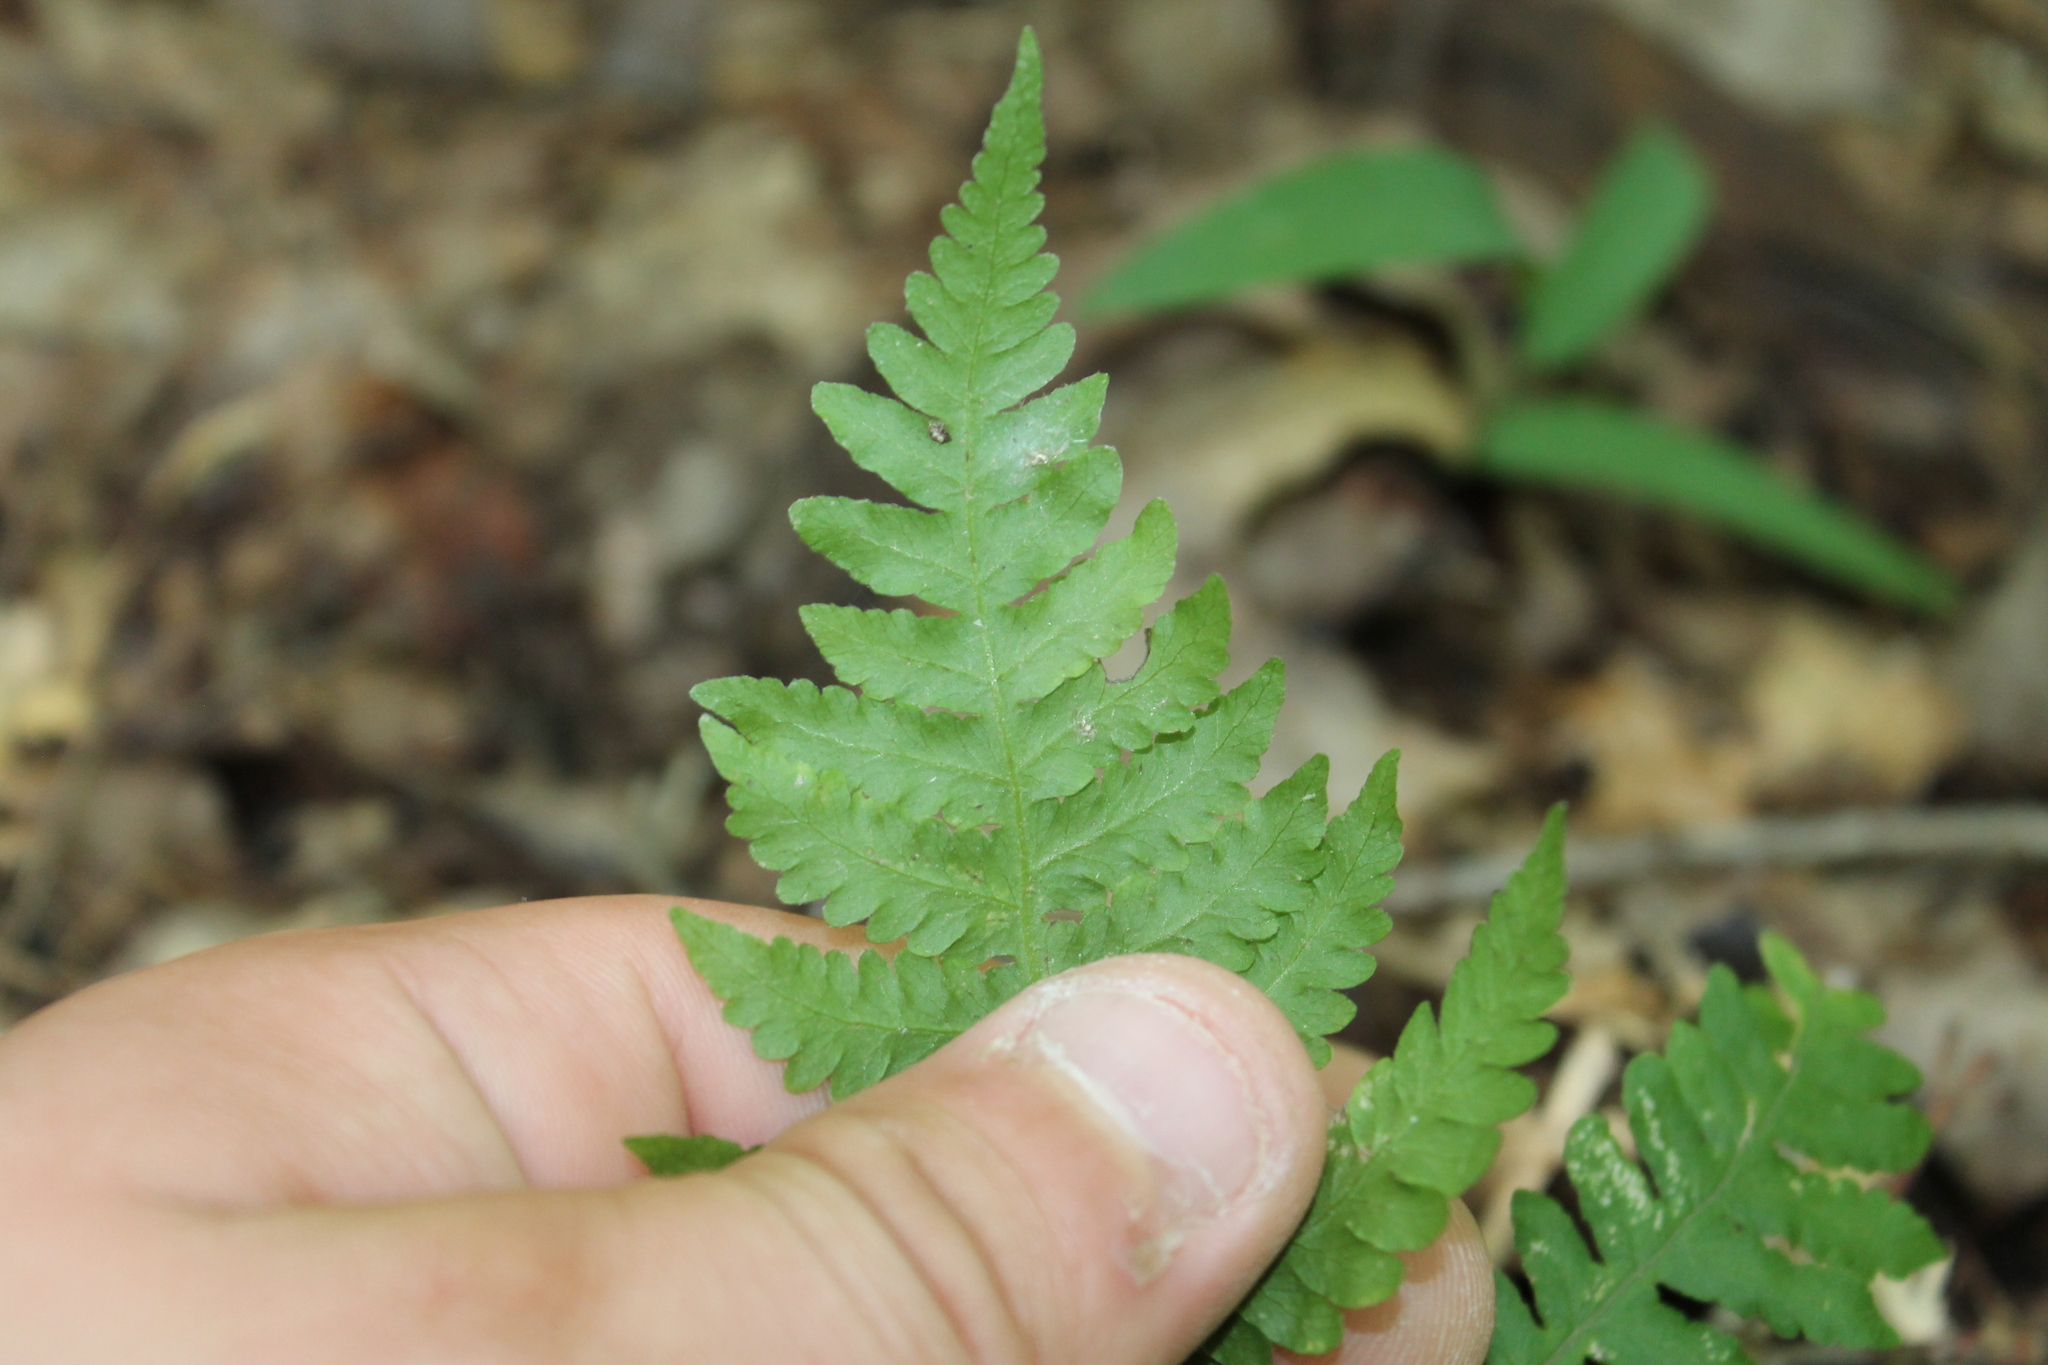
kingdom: Plantae
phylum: Tracheophyta
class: Polypodiopsida
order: Polypodiales
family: Thelypteridaceae
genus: Phegopteris
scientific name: Phegopteris hexagonoptera
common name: Broad beech fern
